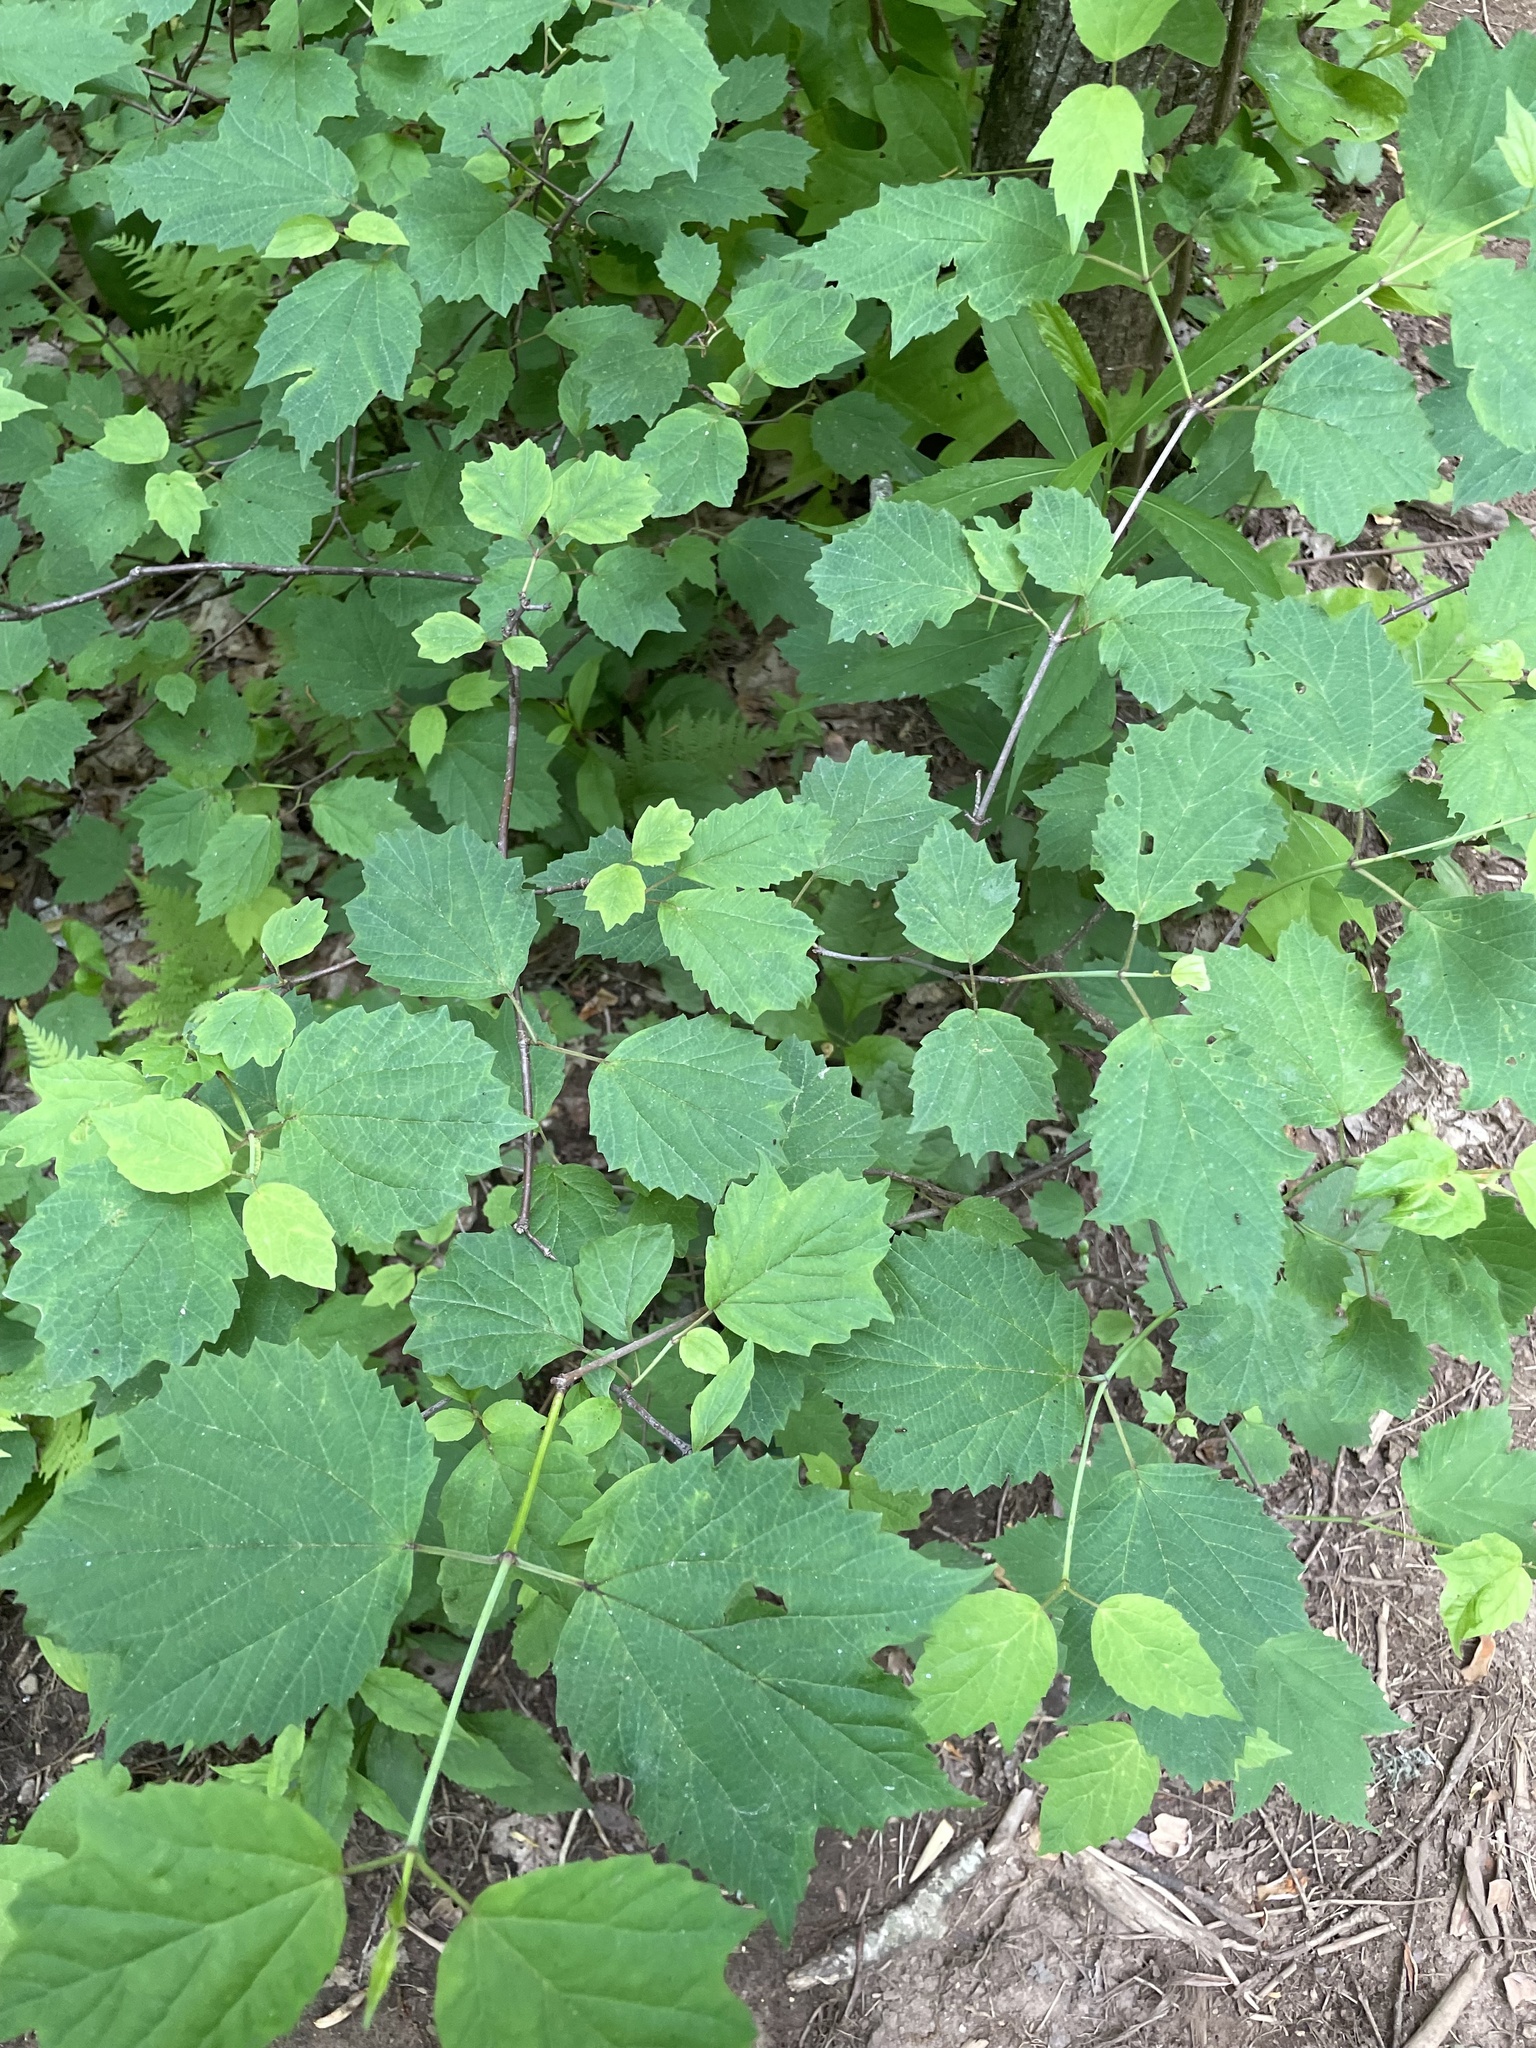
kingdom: Plantae
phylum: Tracheophyta
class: Magnoliopsida
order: Dipsacales
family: Viburnaceae
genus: Viburnum
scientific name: Viburnum acerifolium
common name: Dockmackie
